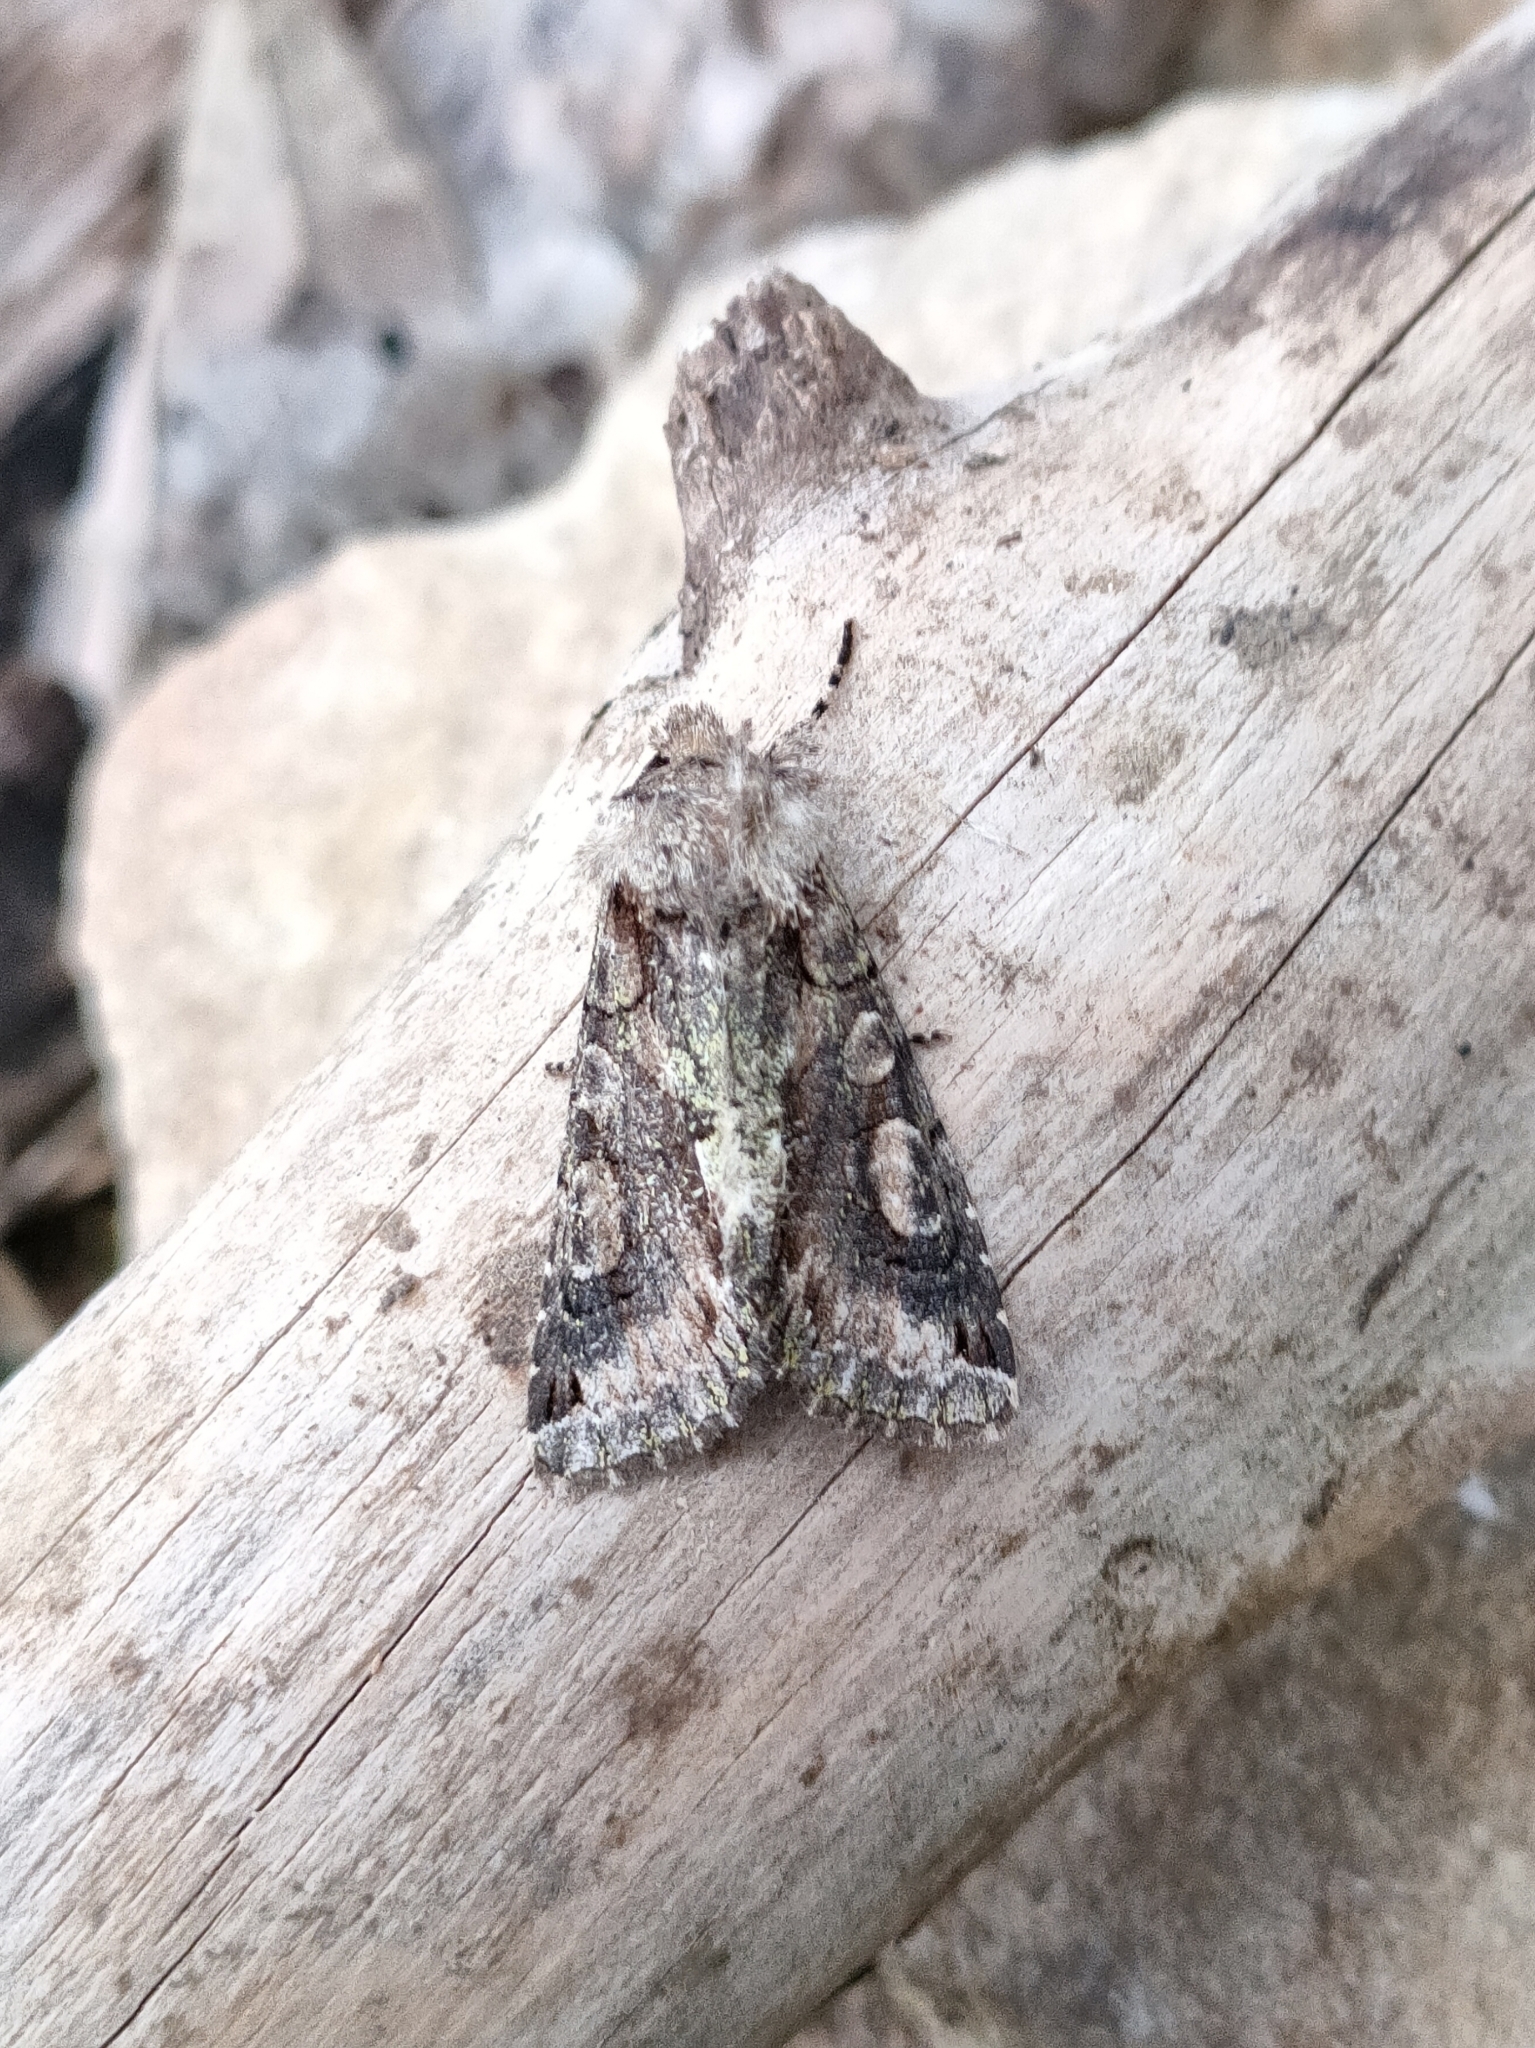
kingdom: Animalia
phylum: Arthropoda
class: Insecta
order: Lepidoptera
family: Noctuidae
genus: Allophyes
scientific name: Allophyes alfaroi
